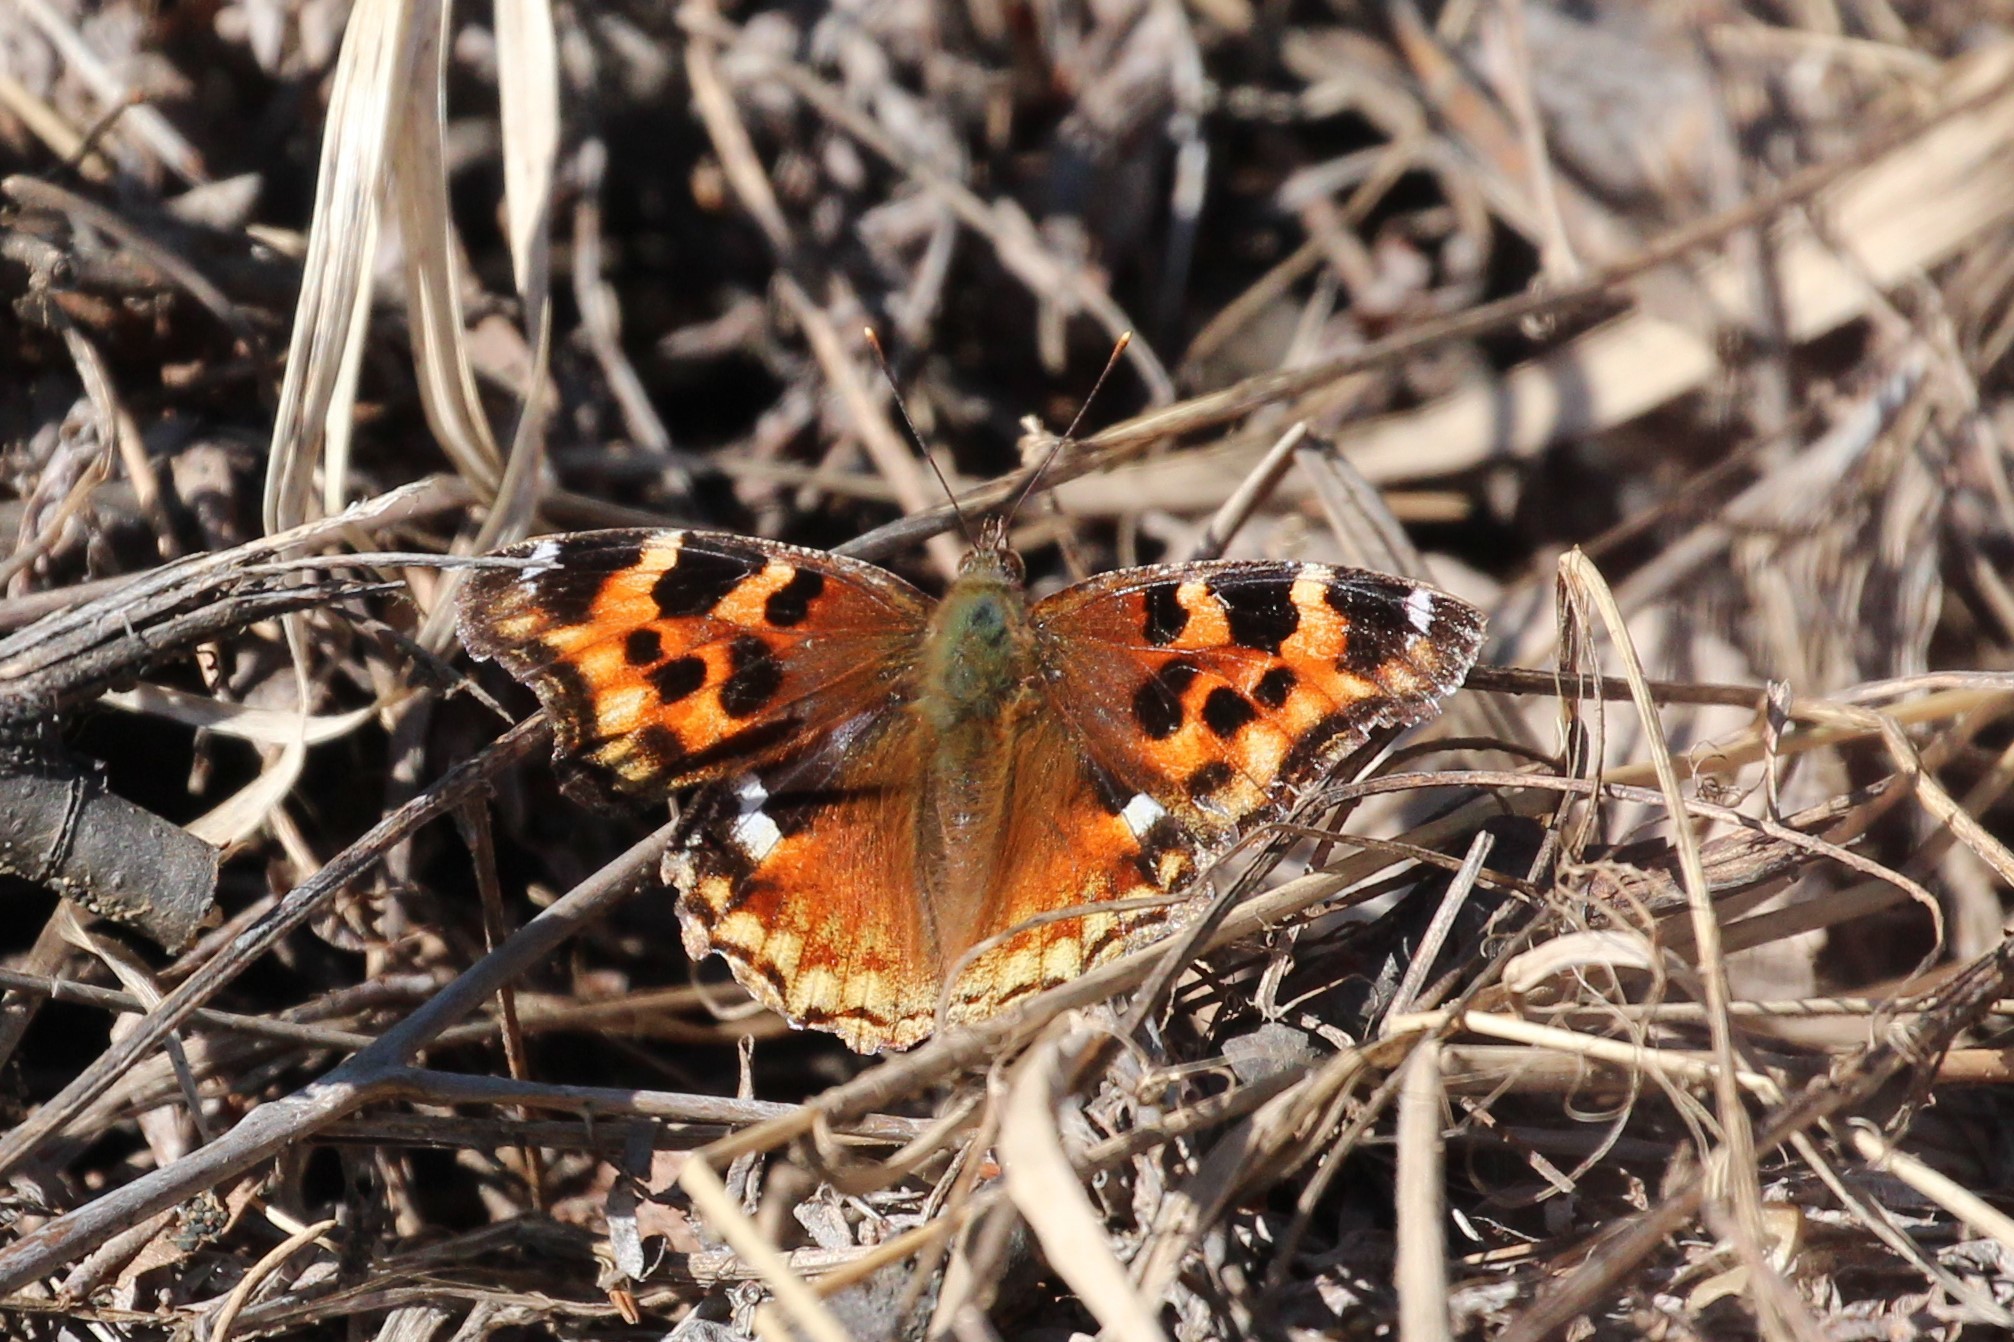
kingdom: Animalia
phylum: Arthropoda
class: Insecta
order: Lepidoptera
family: Nymphalidae
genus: Polygonia
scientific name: Polygonia vaualbum
